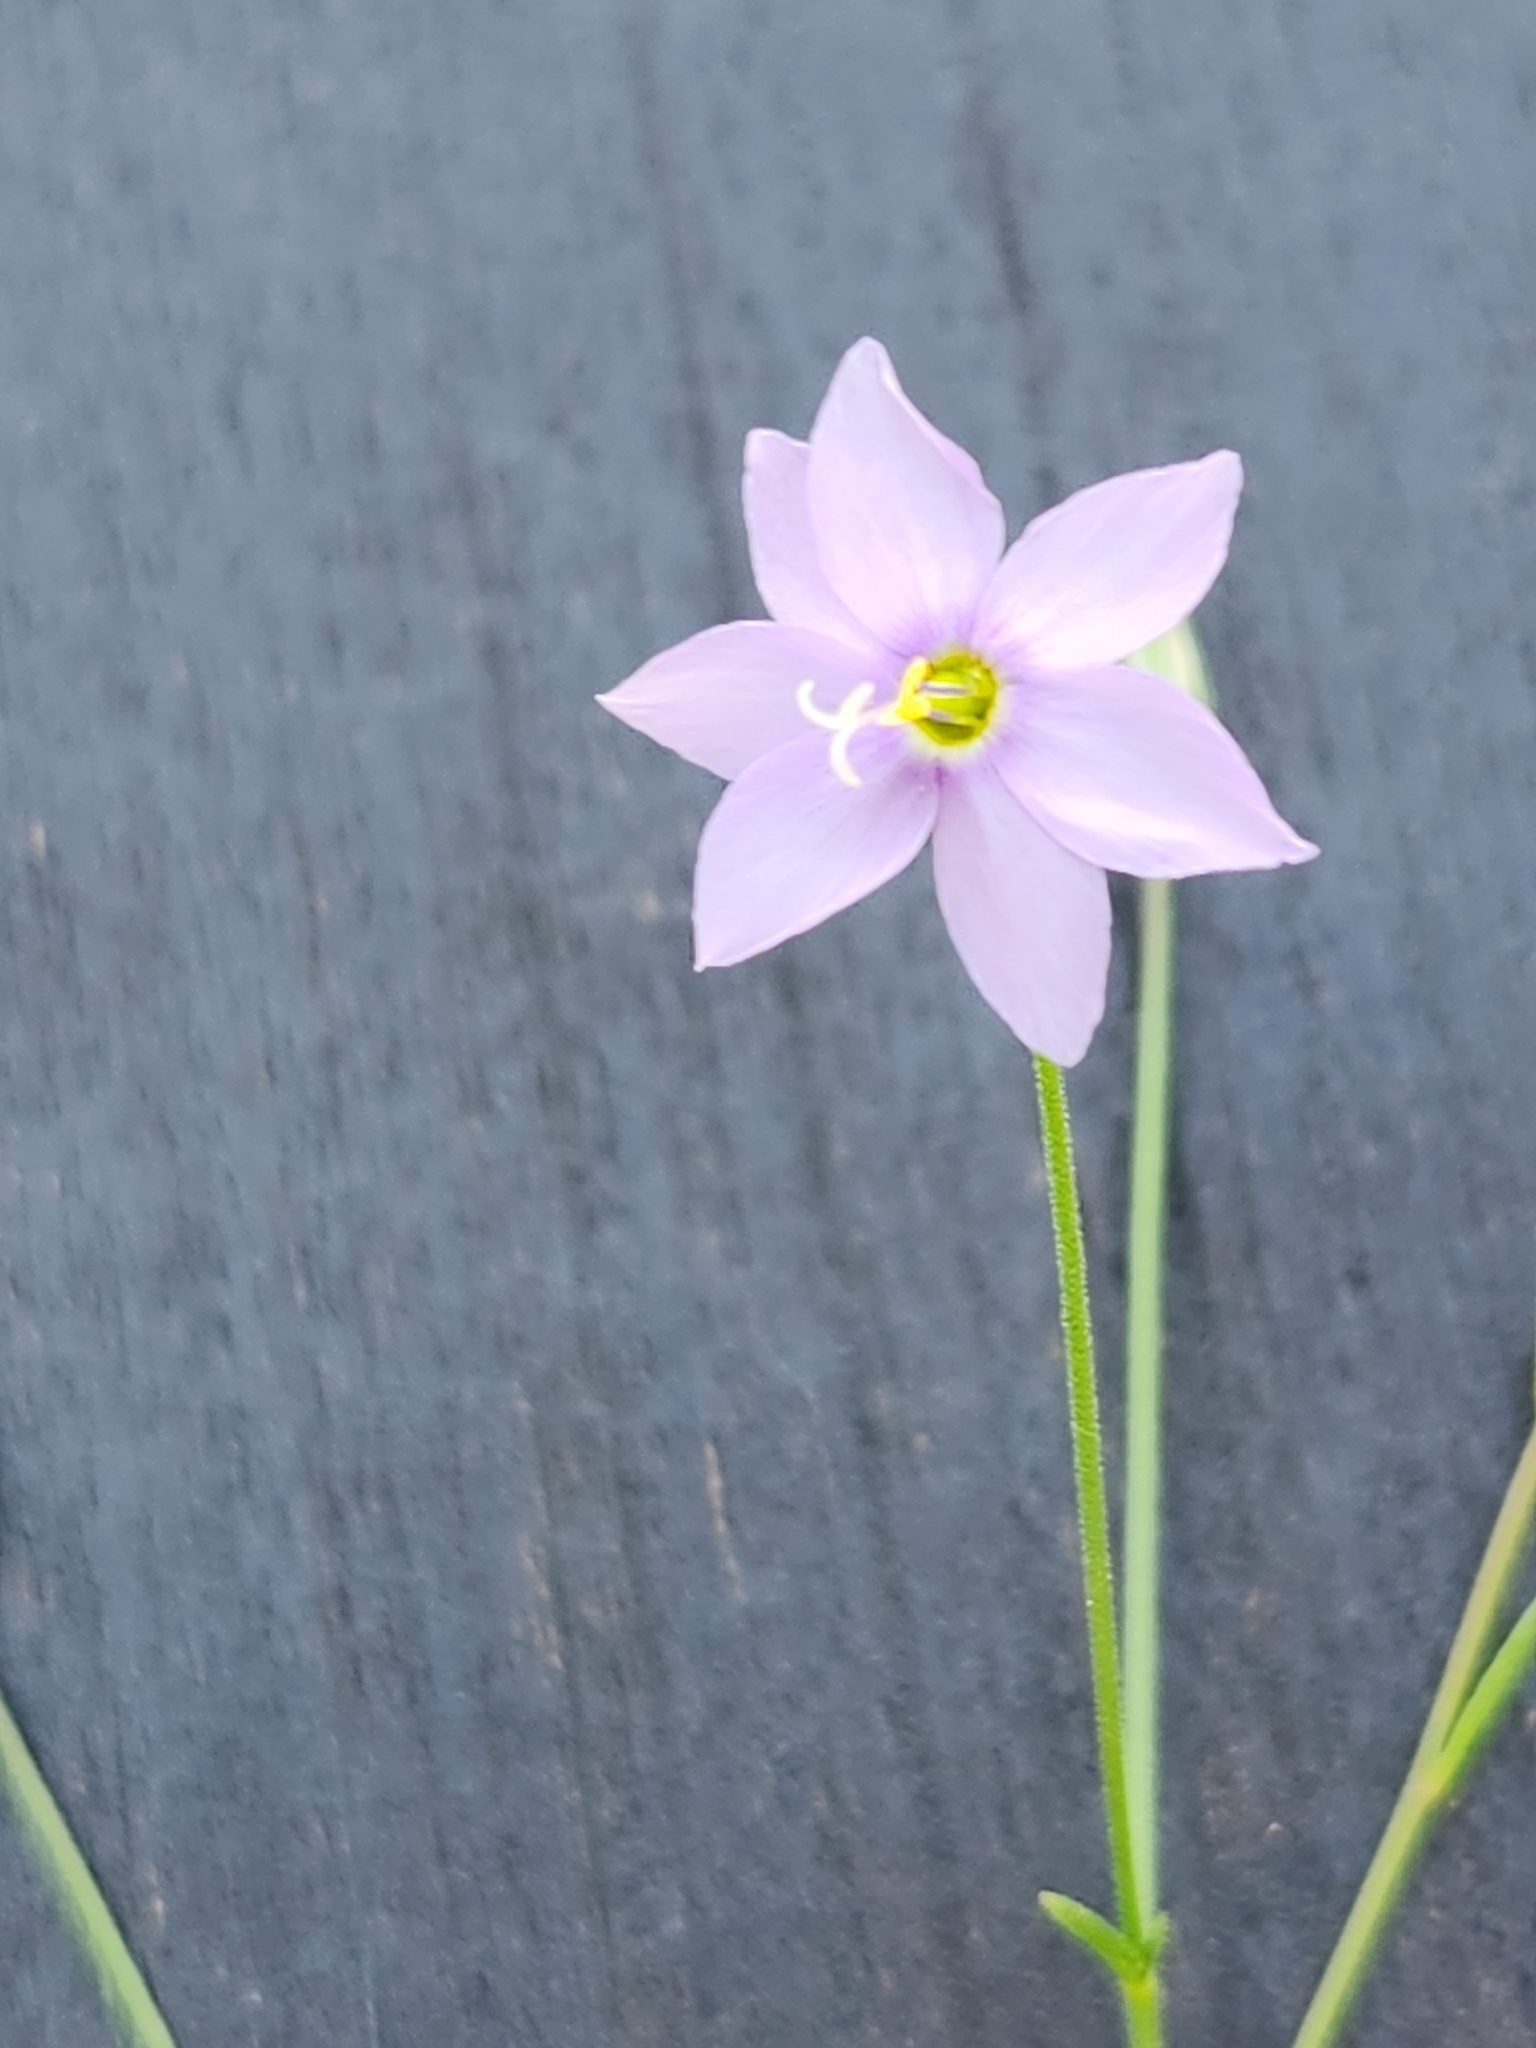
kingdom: Plantae
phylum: Tracheophyta
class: Magnoliopsida
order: Ericales
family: Polemoniaceae
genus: Giliastrum
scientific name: Giliastrum incisum
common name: Splitleaf gilia
